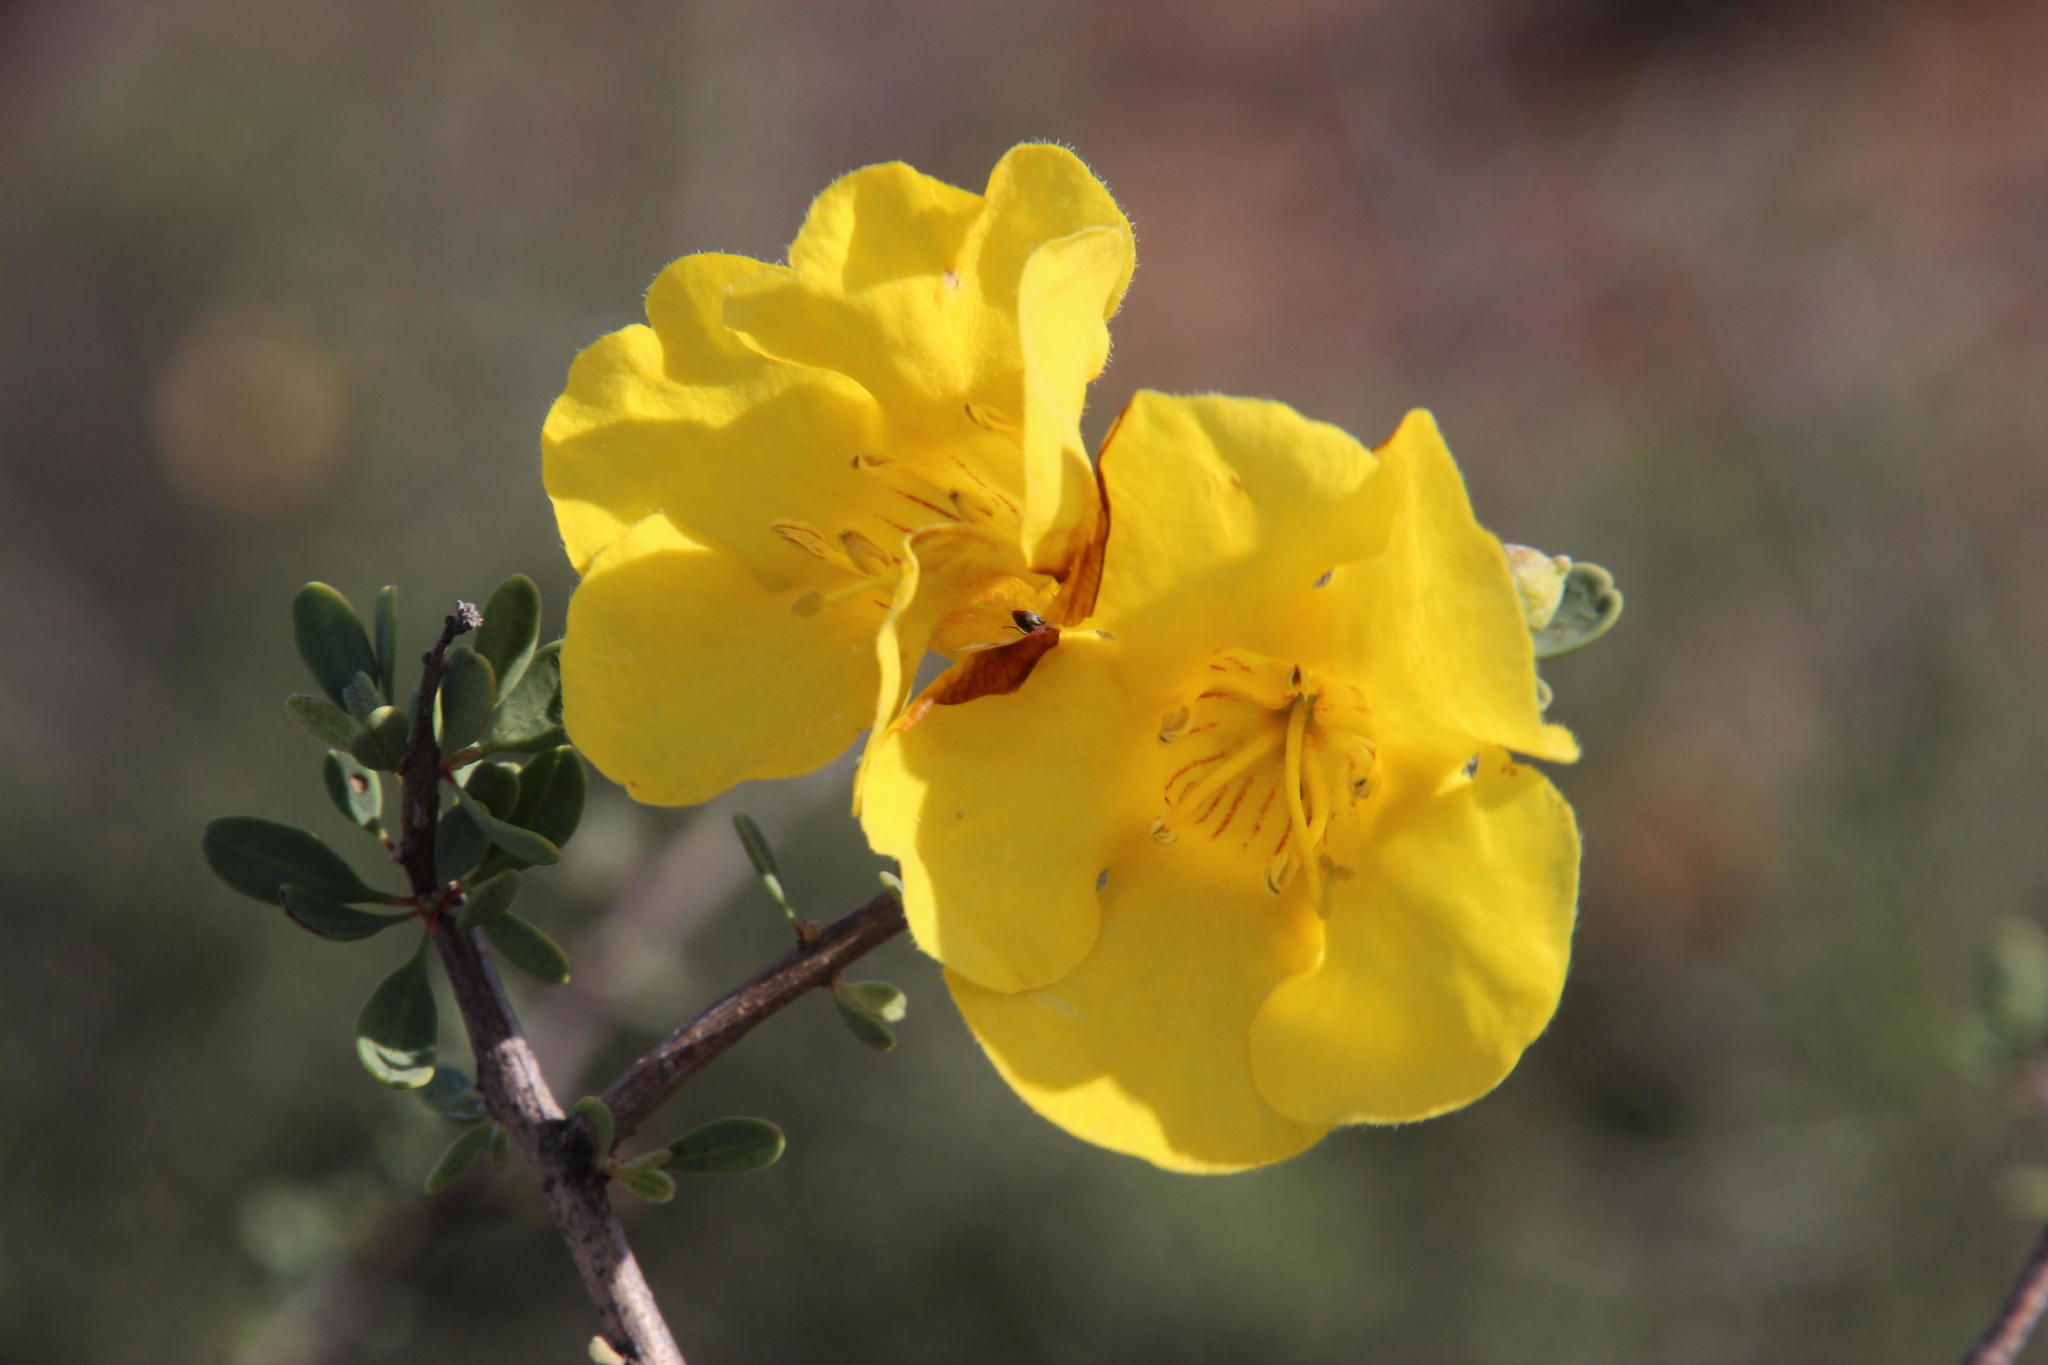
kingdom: Plantae
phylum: Tracheophyta
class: Magnoliopsida
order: Lamiales
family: Bignoniaceae
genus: Rhigozum
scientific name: Rhigozum obovatum
